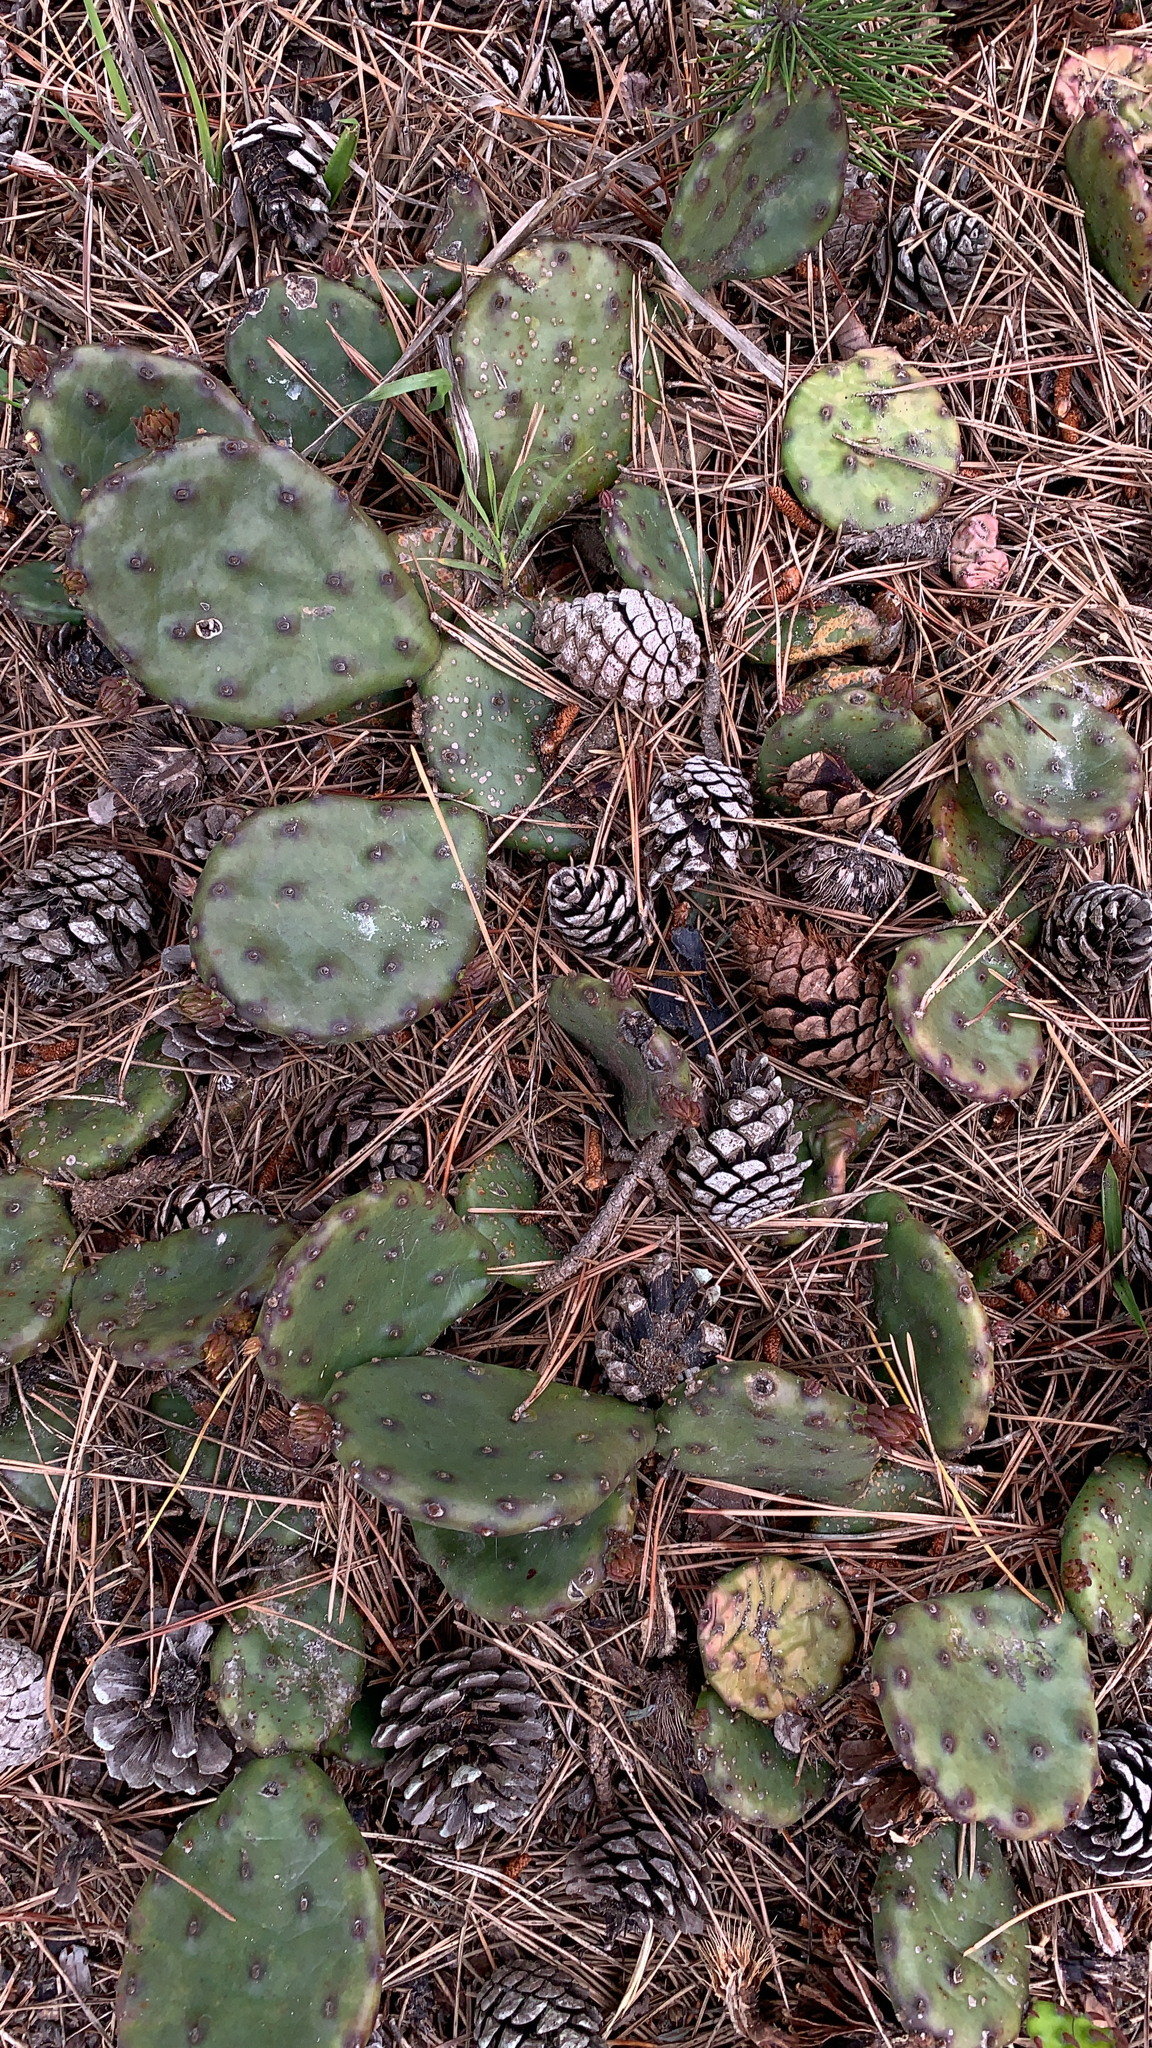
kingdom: Plantae
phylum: Tracheophyta
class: Magnoliopsida
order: Caryophyllales
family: Cactaceae
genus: Opuntia
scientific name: Opuntia humifusa
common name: Eastern prickly-pear
